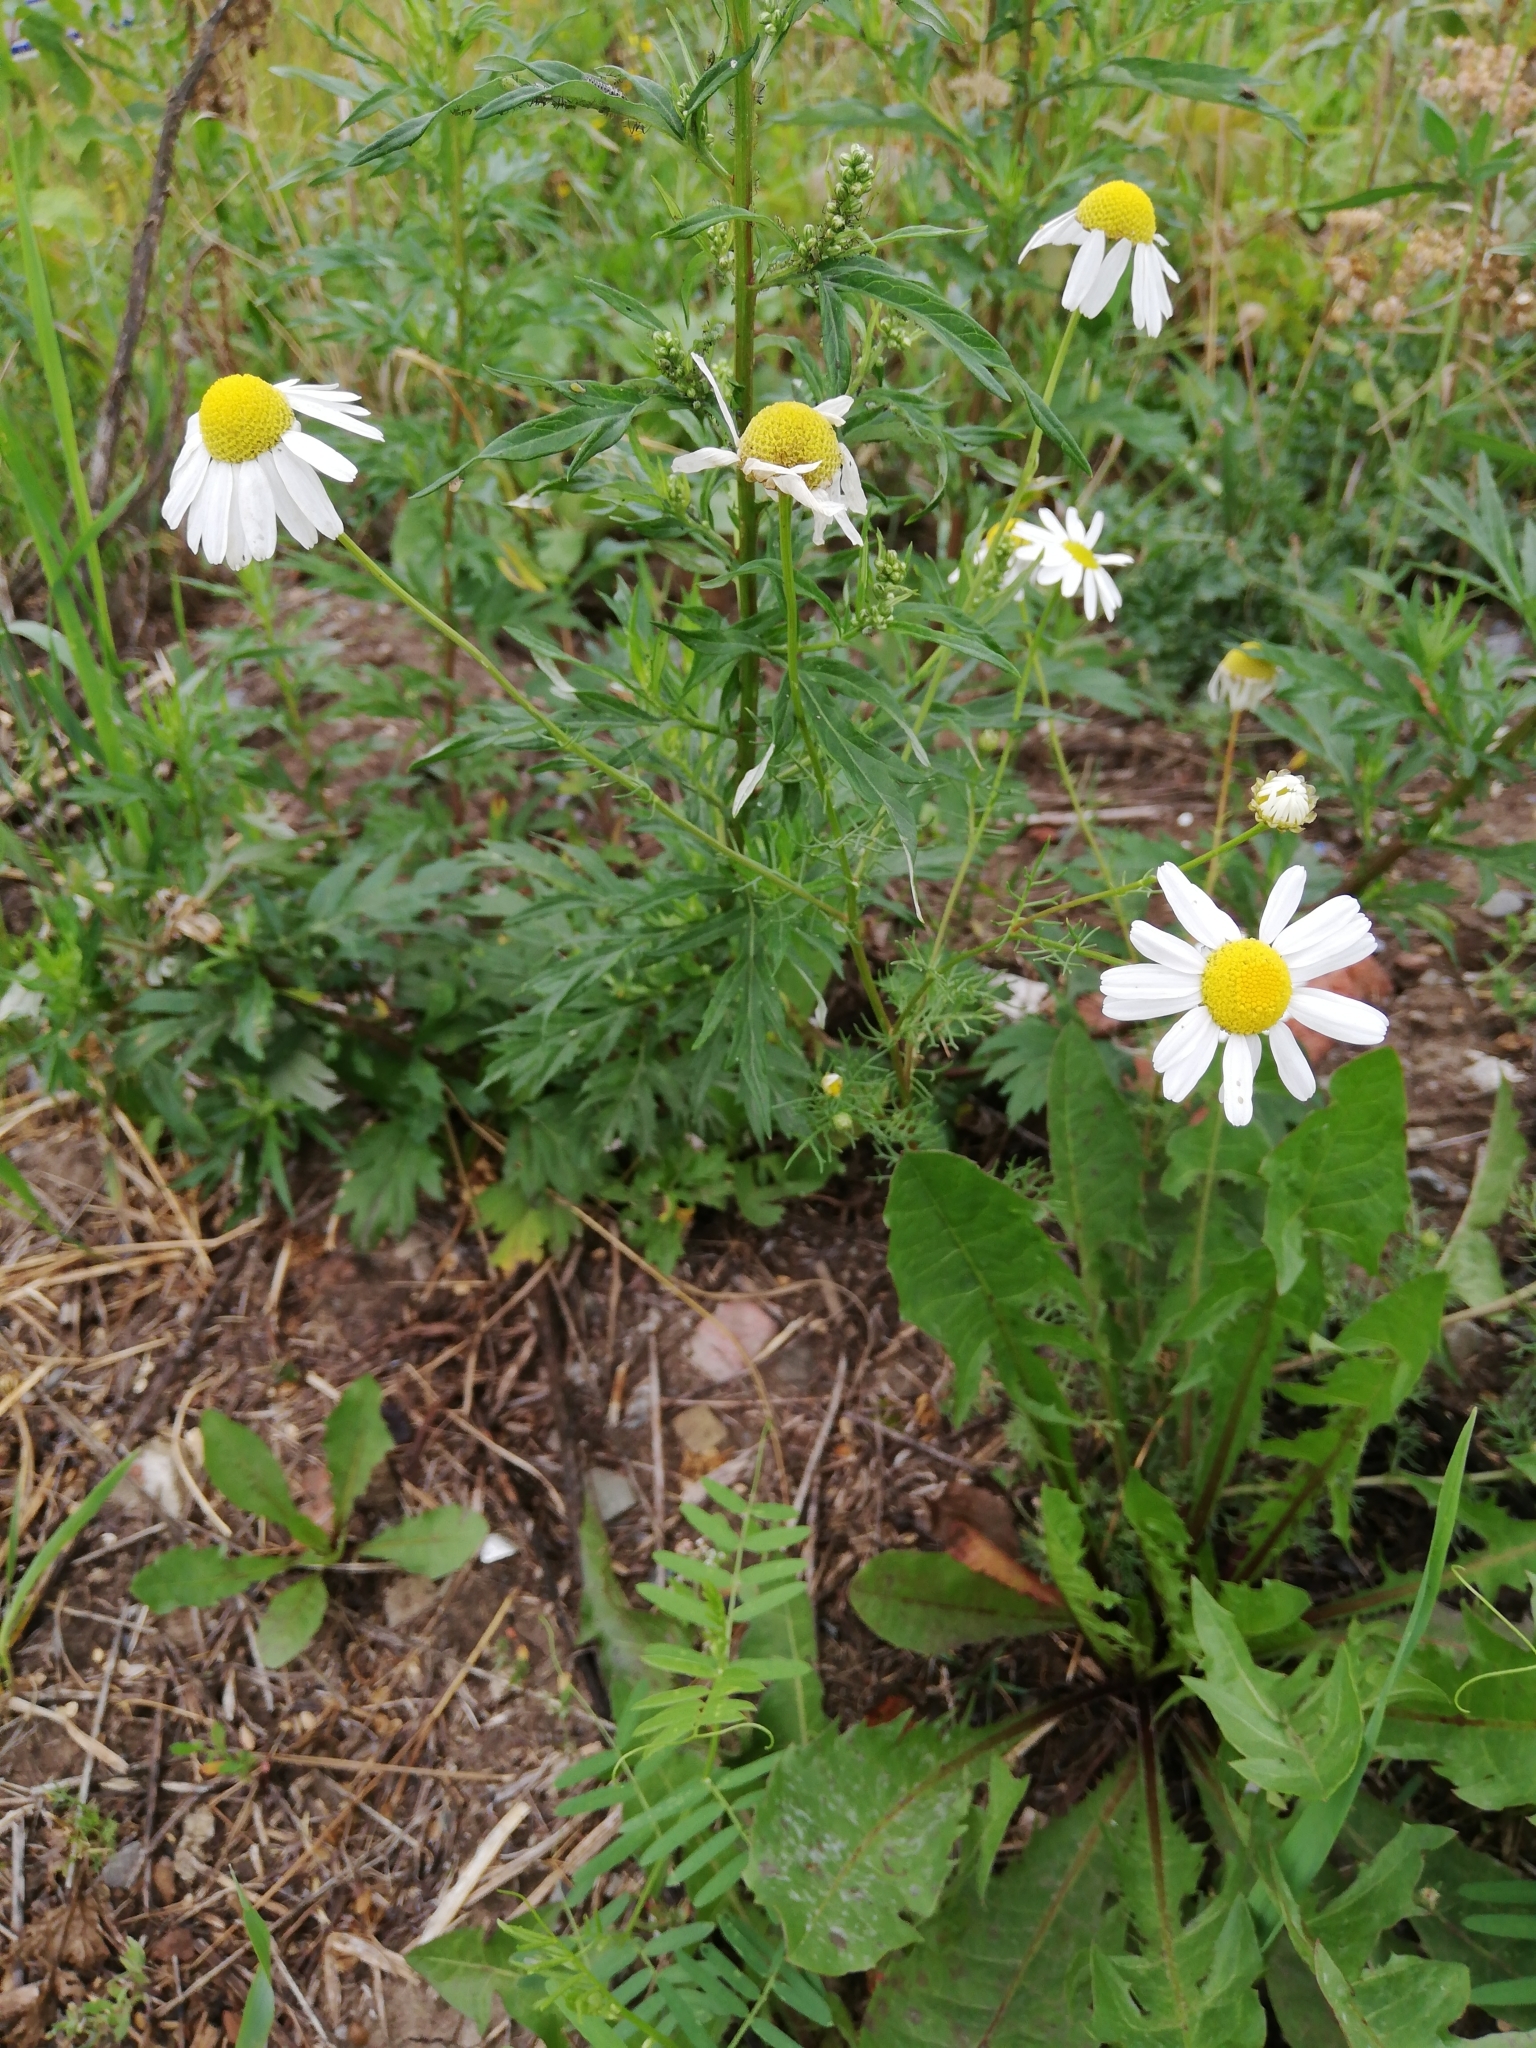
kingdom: Plantae
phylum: Tracheophyta
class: Magnoliopsida
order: Asterales
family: Asteraceae
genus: Tripleurospermum
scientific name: Tripleurospermum inodorum
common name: Scentless mayweed
